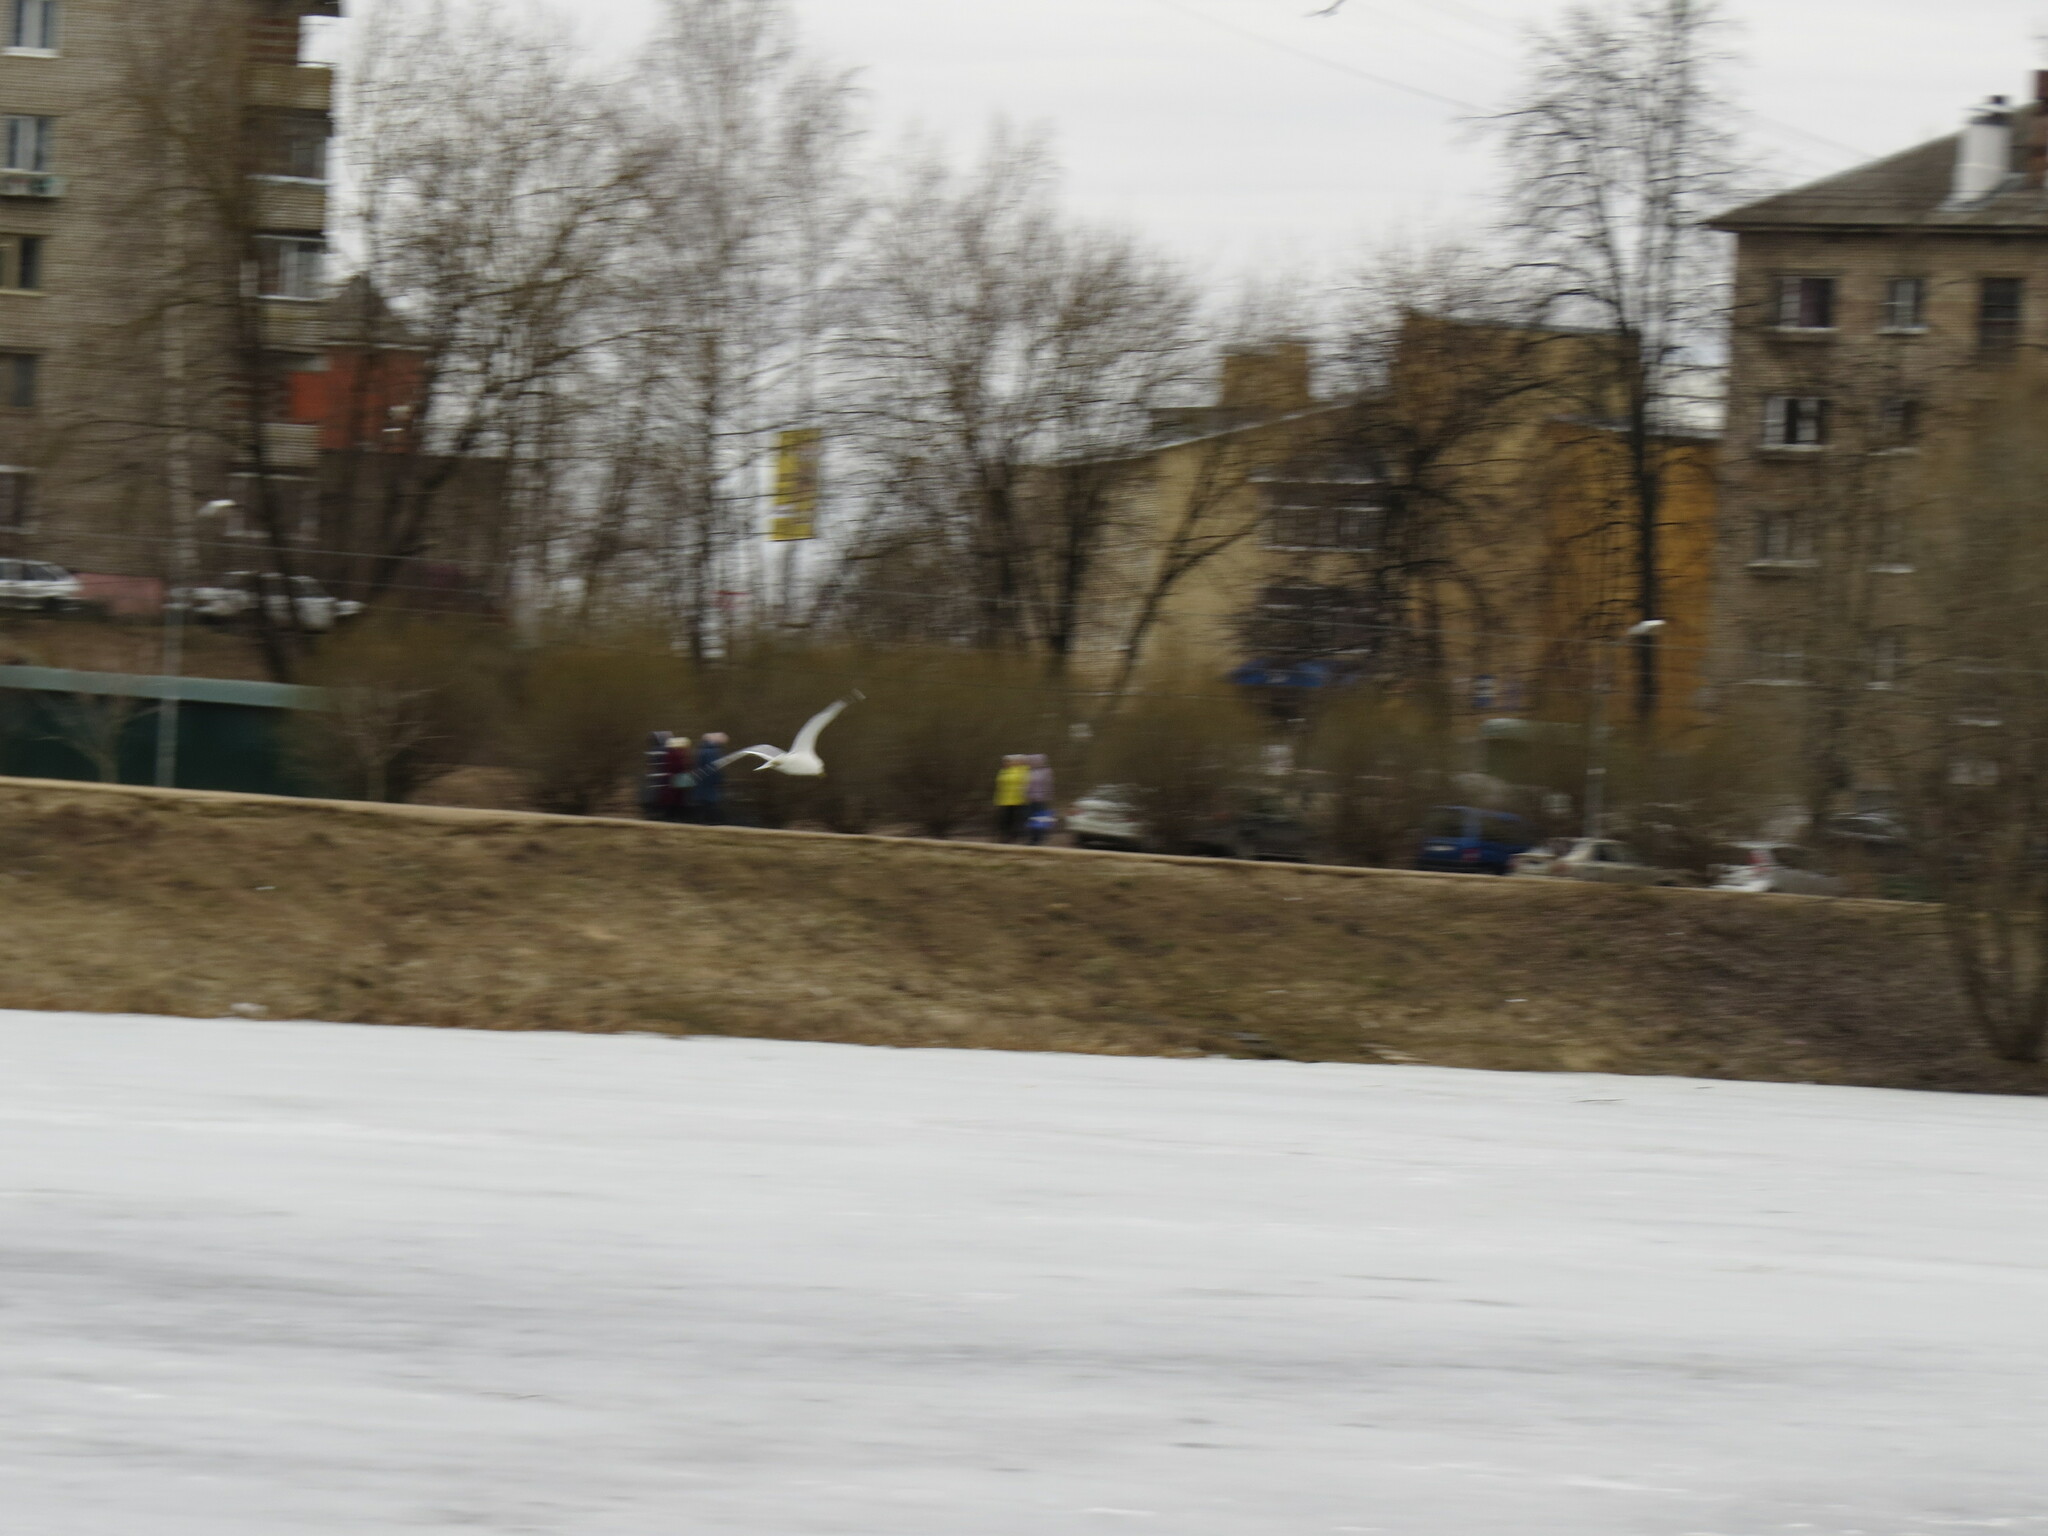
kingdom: Animalia
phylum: Chordata
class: Aves
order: Charadriiformes
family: Laridae
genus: Larus
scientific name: Larus canus
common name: Mew gull
